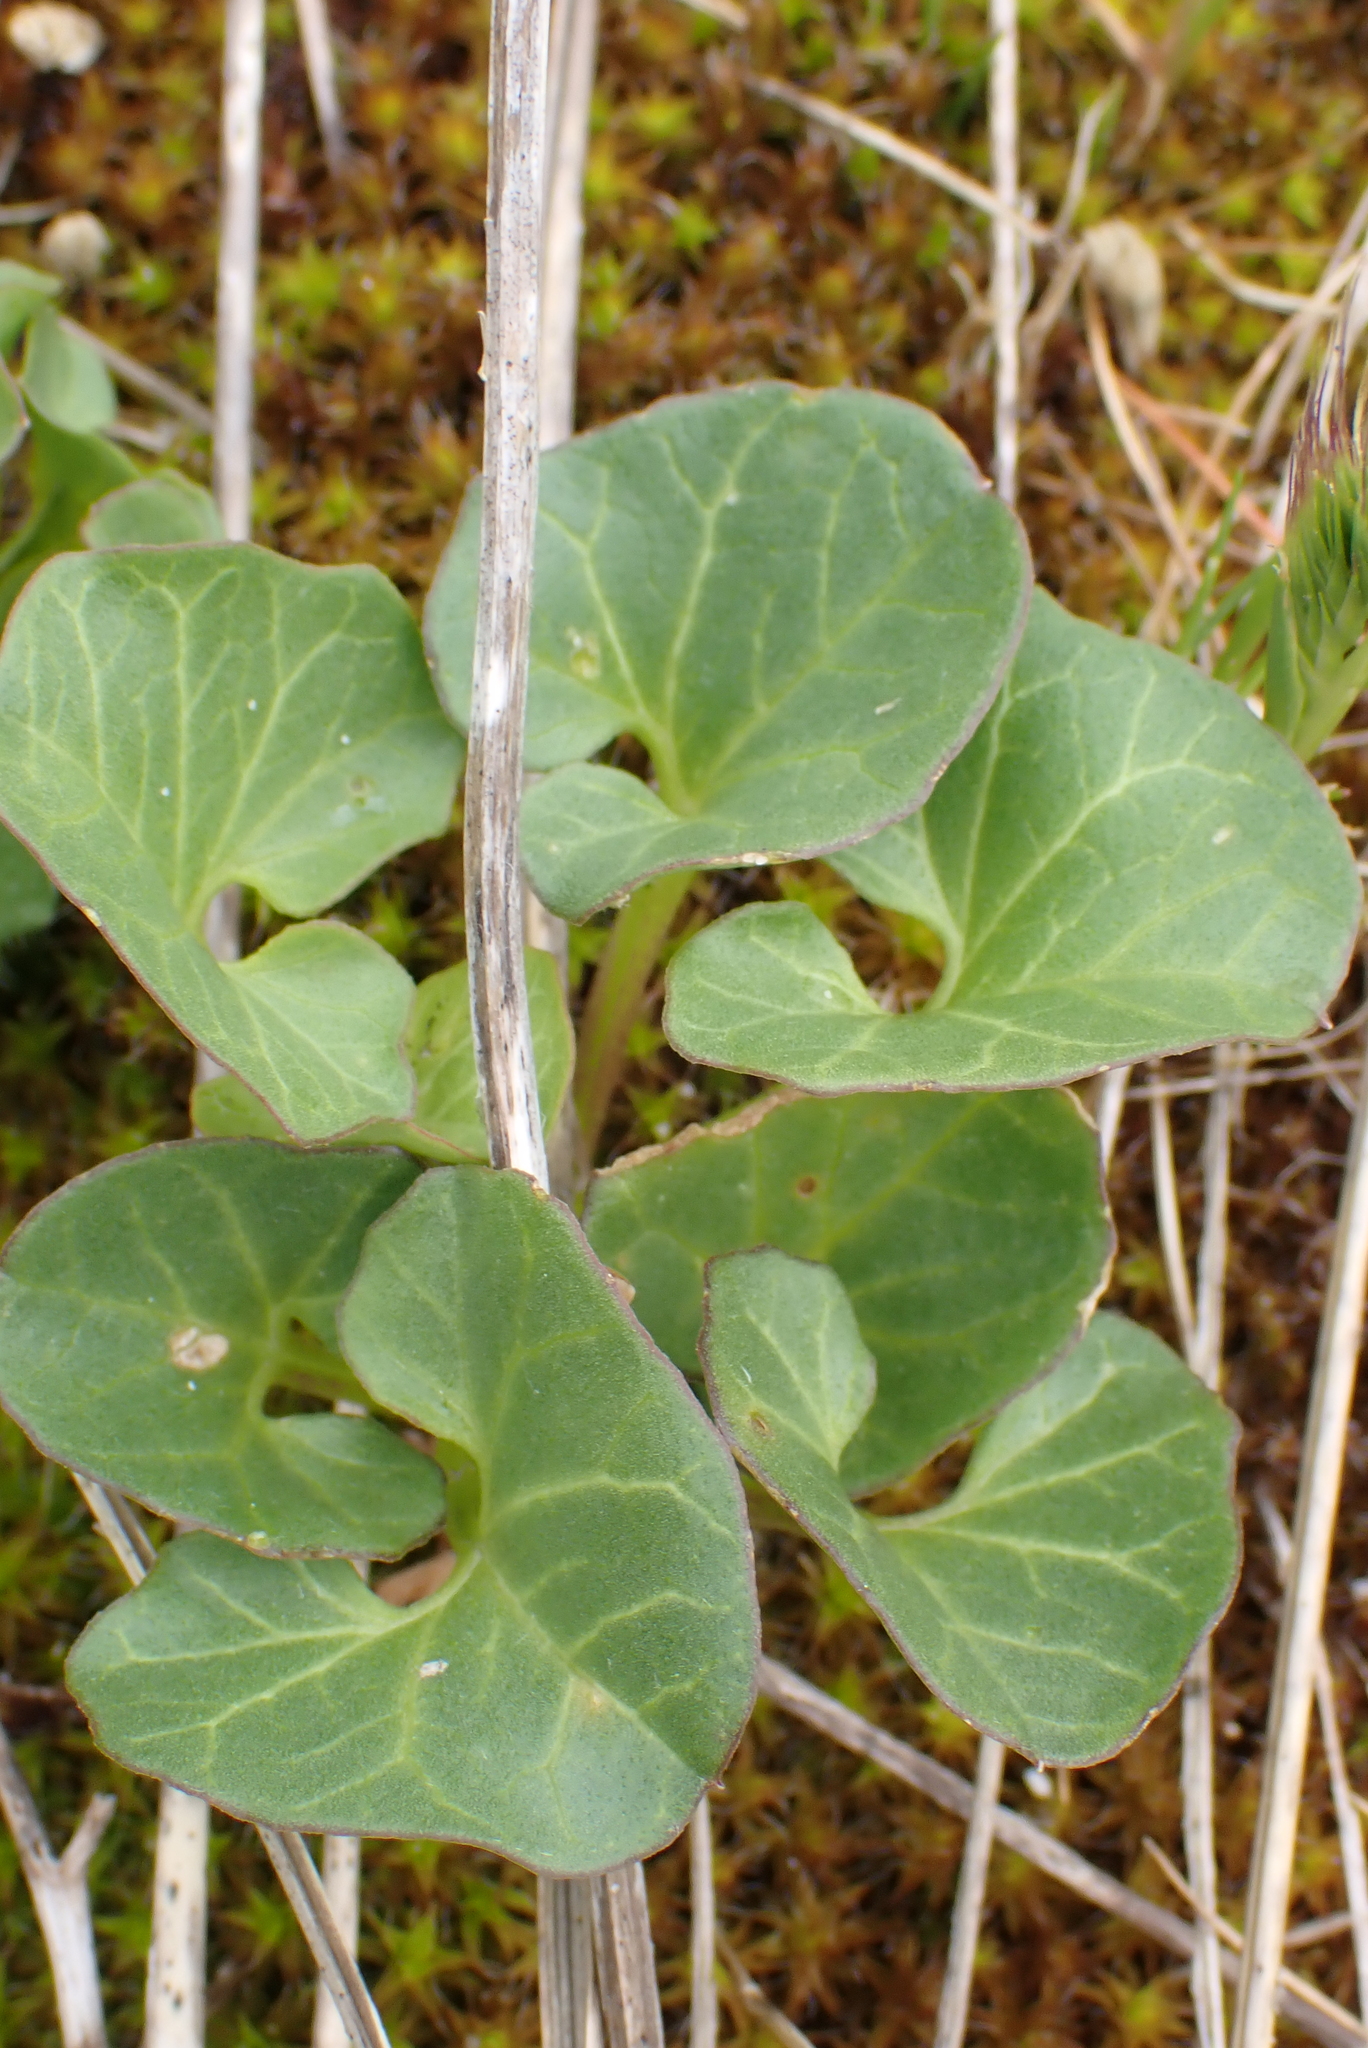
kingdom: Plantae
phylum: Tracheophyta
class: Magnoliopsida
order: Solanales
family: Convolvulaceae
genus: Calystegia
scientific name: Calystegia soldanella
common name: Sea bindweed
